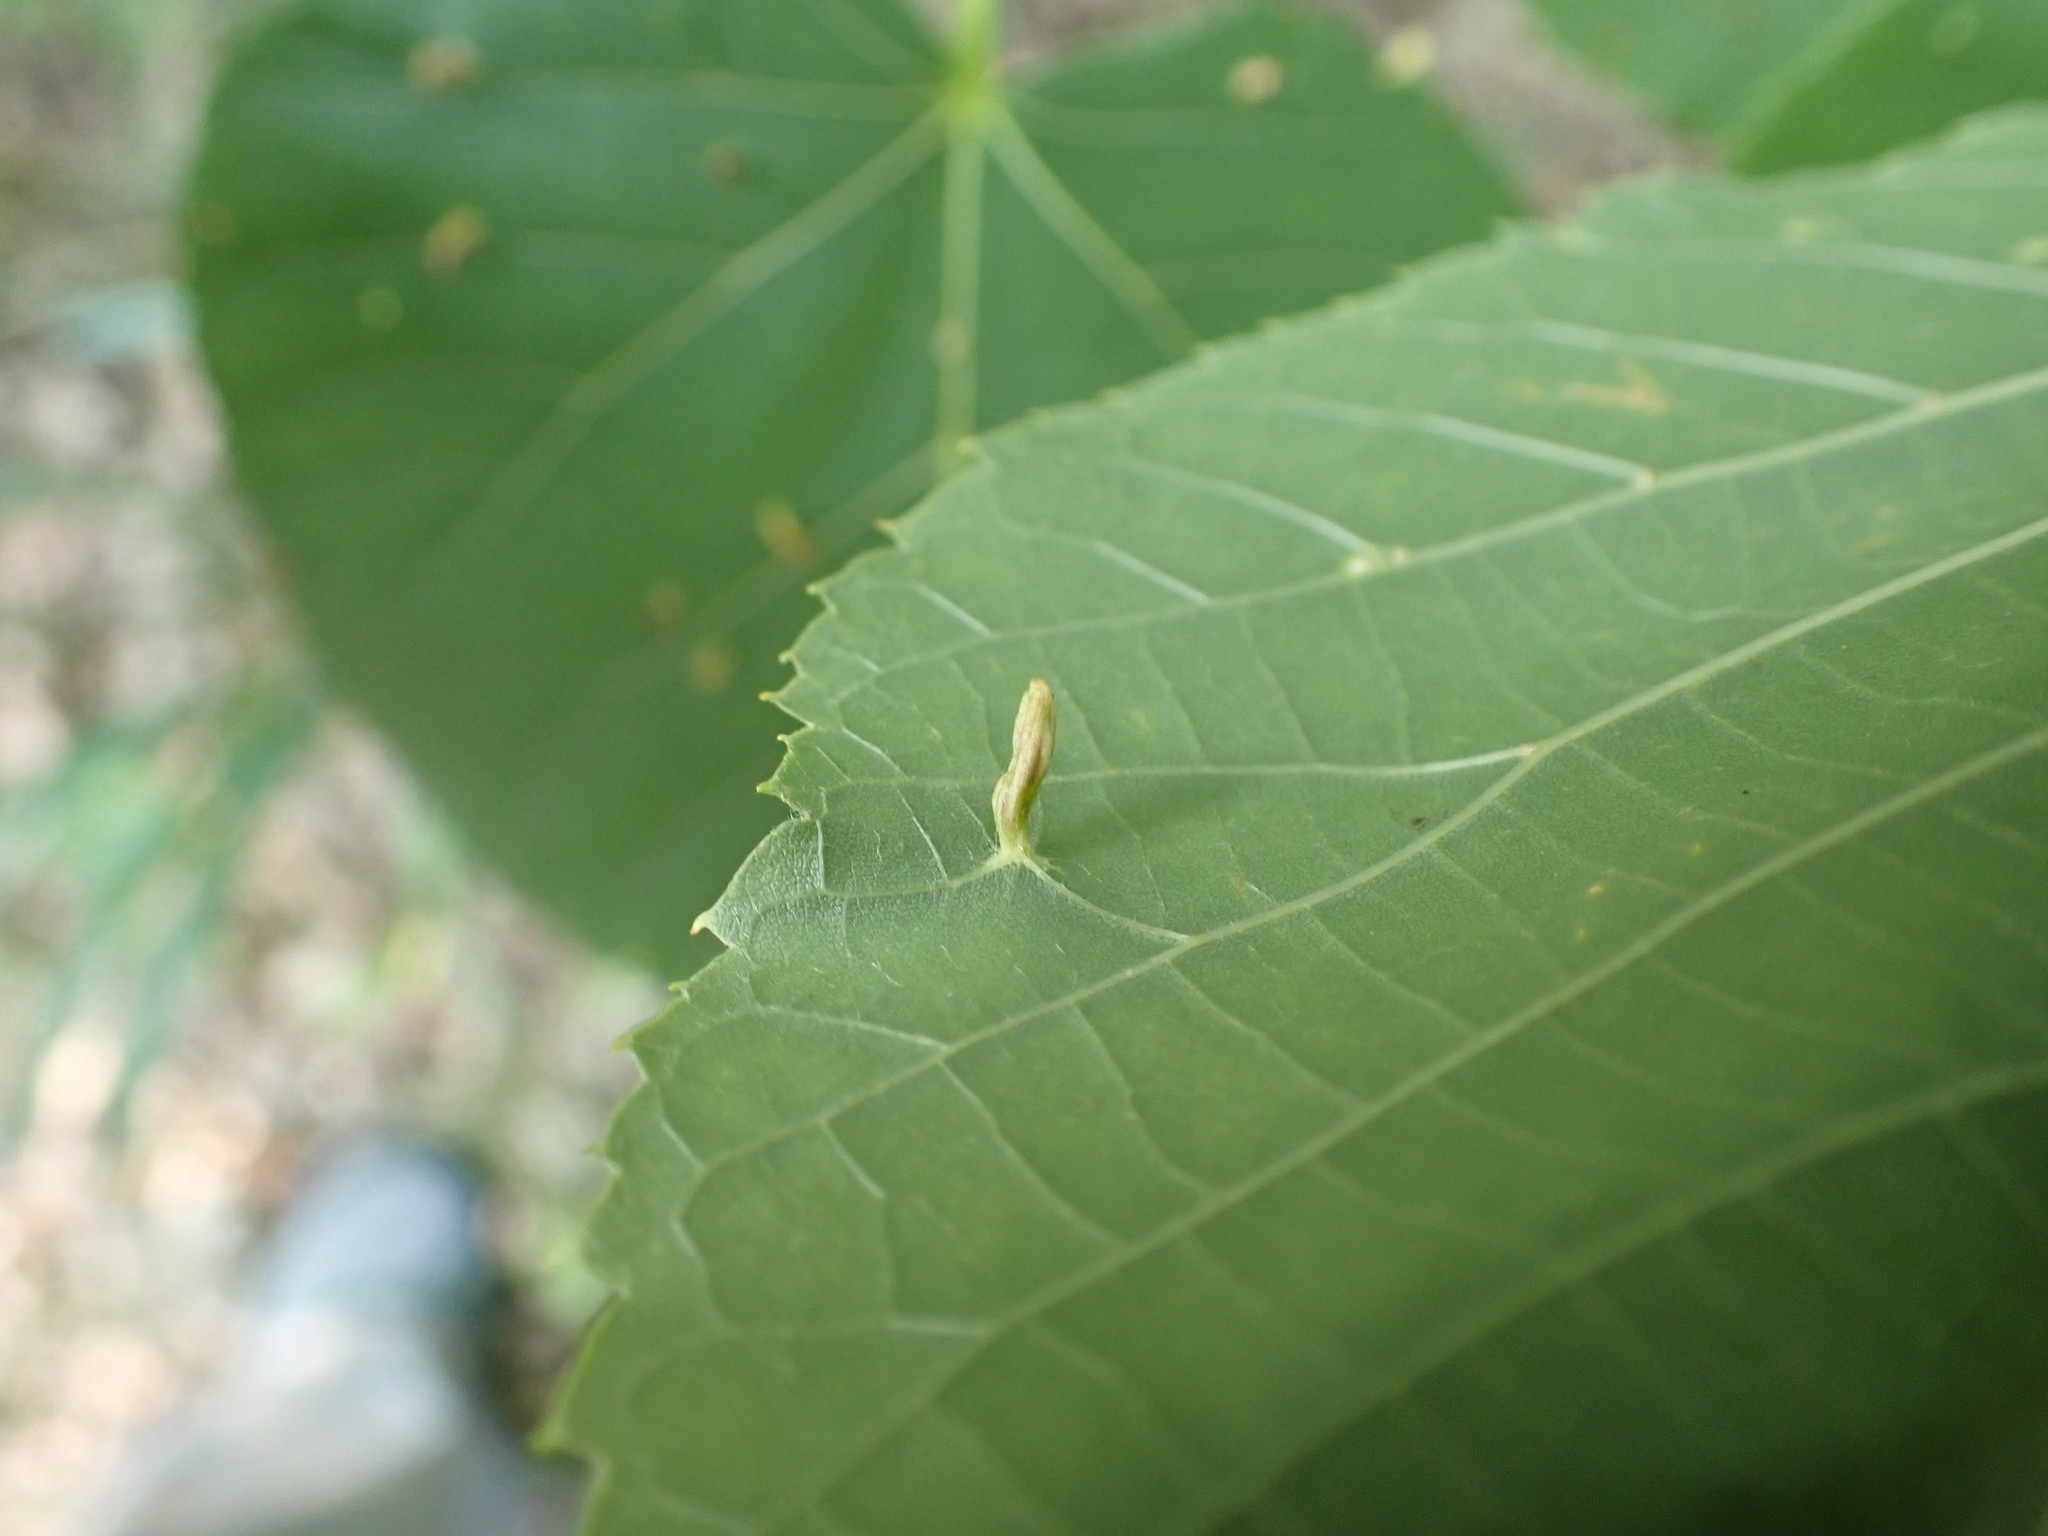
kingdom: Animalia
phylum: Arthropoda
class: Arachnida
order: Trombidiformes
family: Eriophyidae
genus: Eriophyes
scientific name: Eriophyes tiliae
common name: Red nail gall mite
